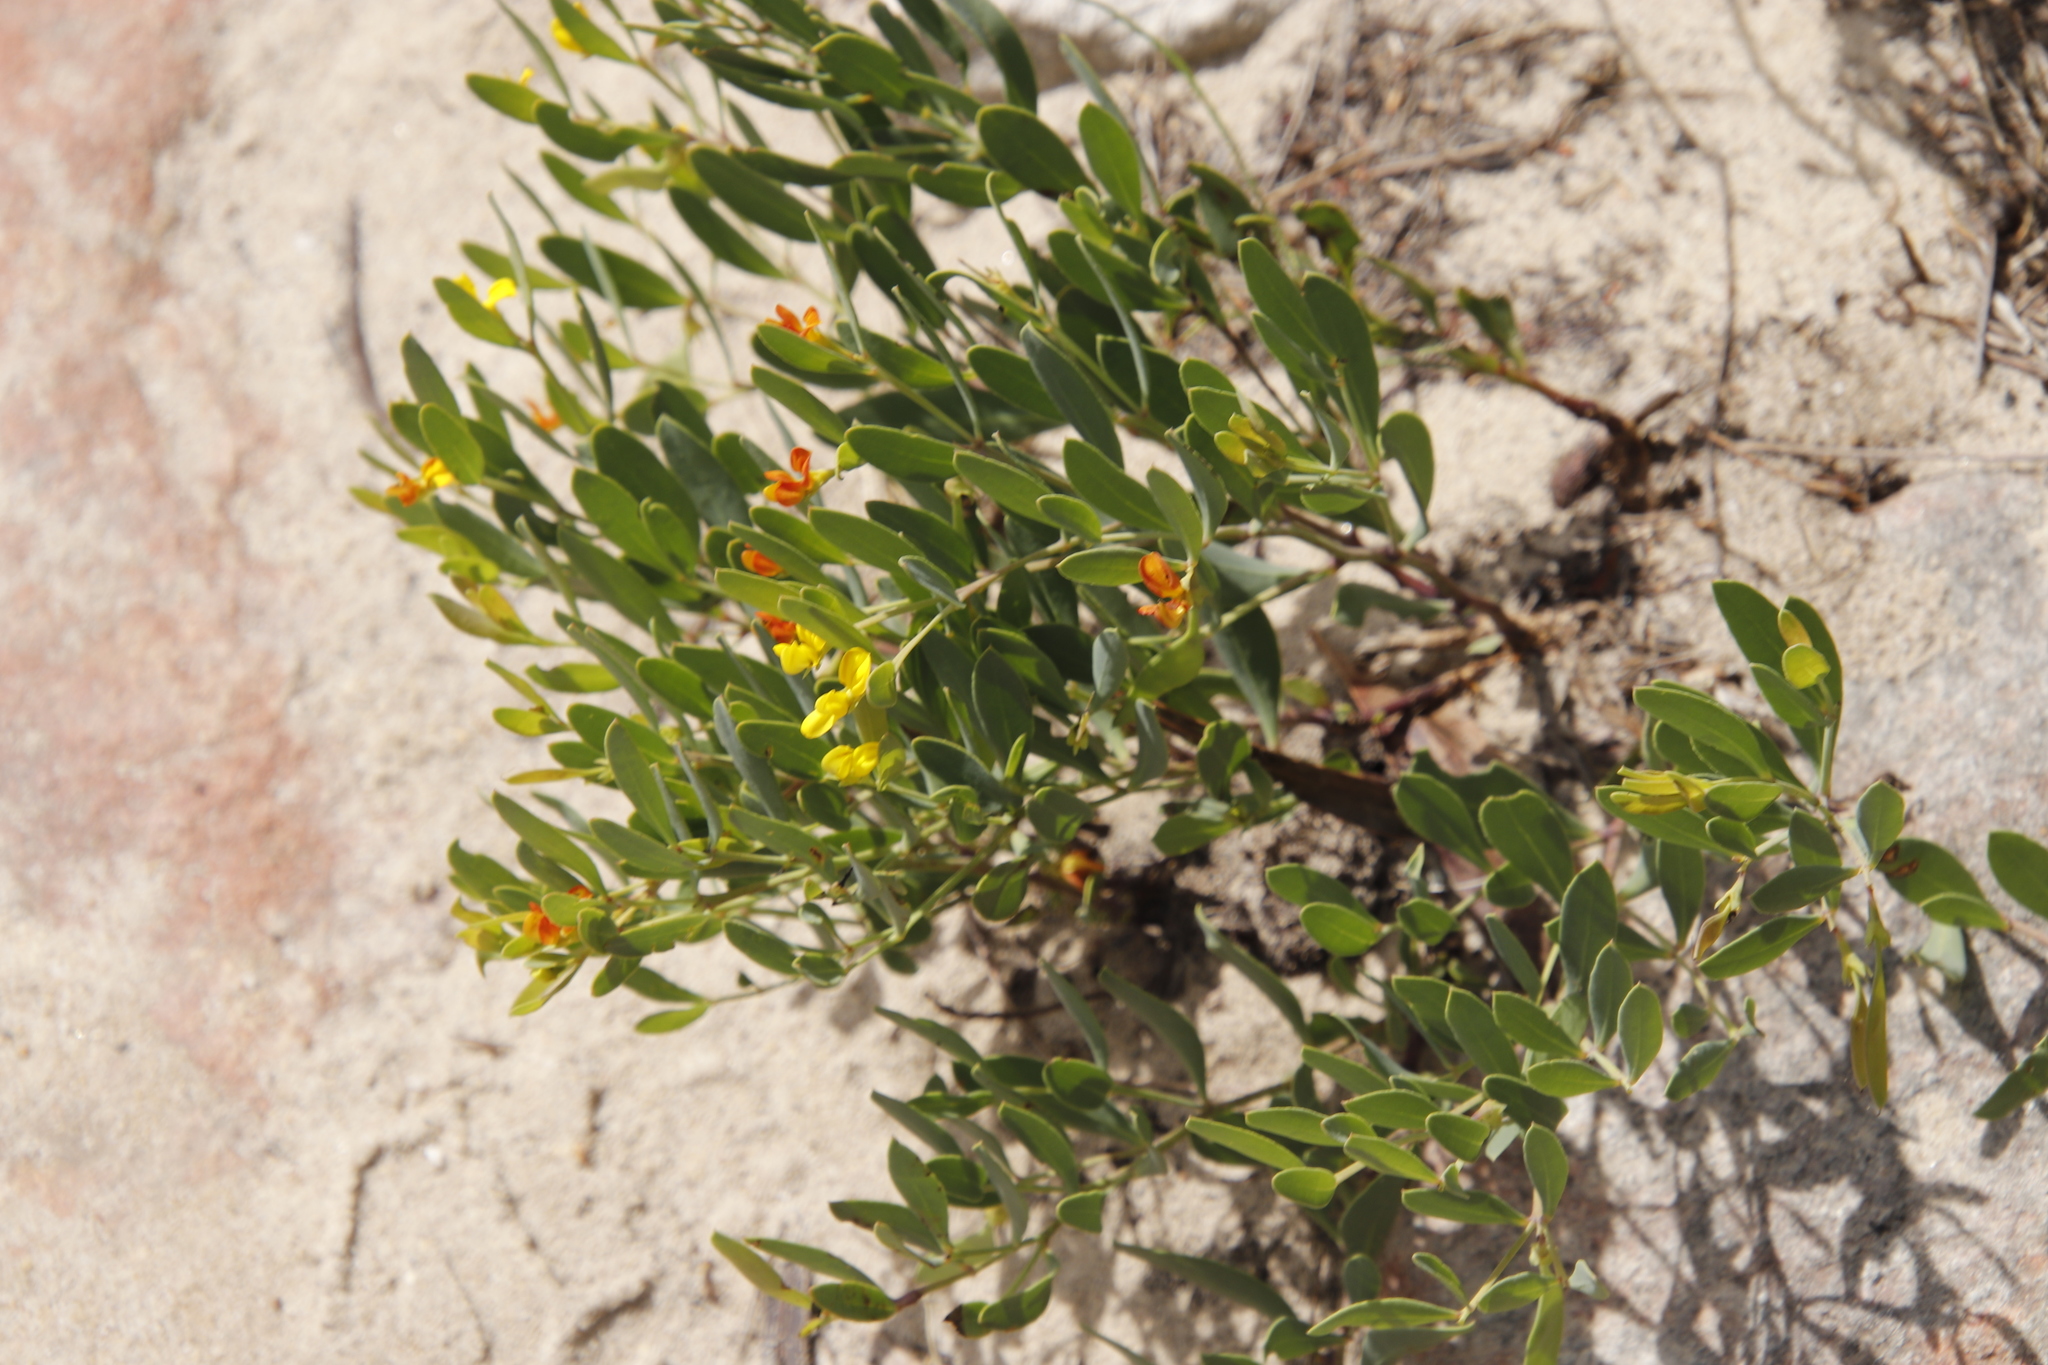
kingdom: Plantae
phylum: Tracheophyta
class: Magnoliopsida
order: Fabales
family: Fabaceae
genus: Rafnia
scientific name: Rafnia angulata
